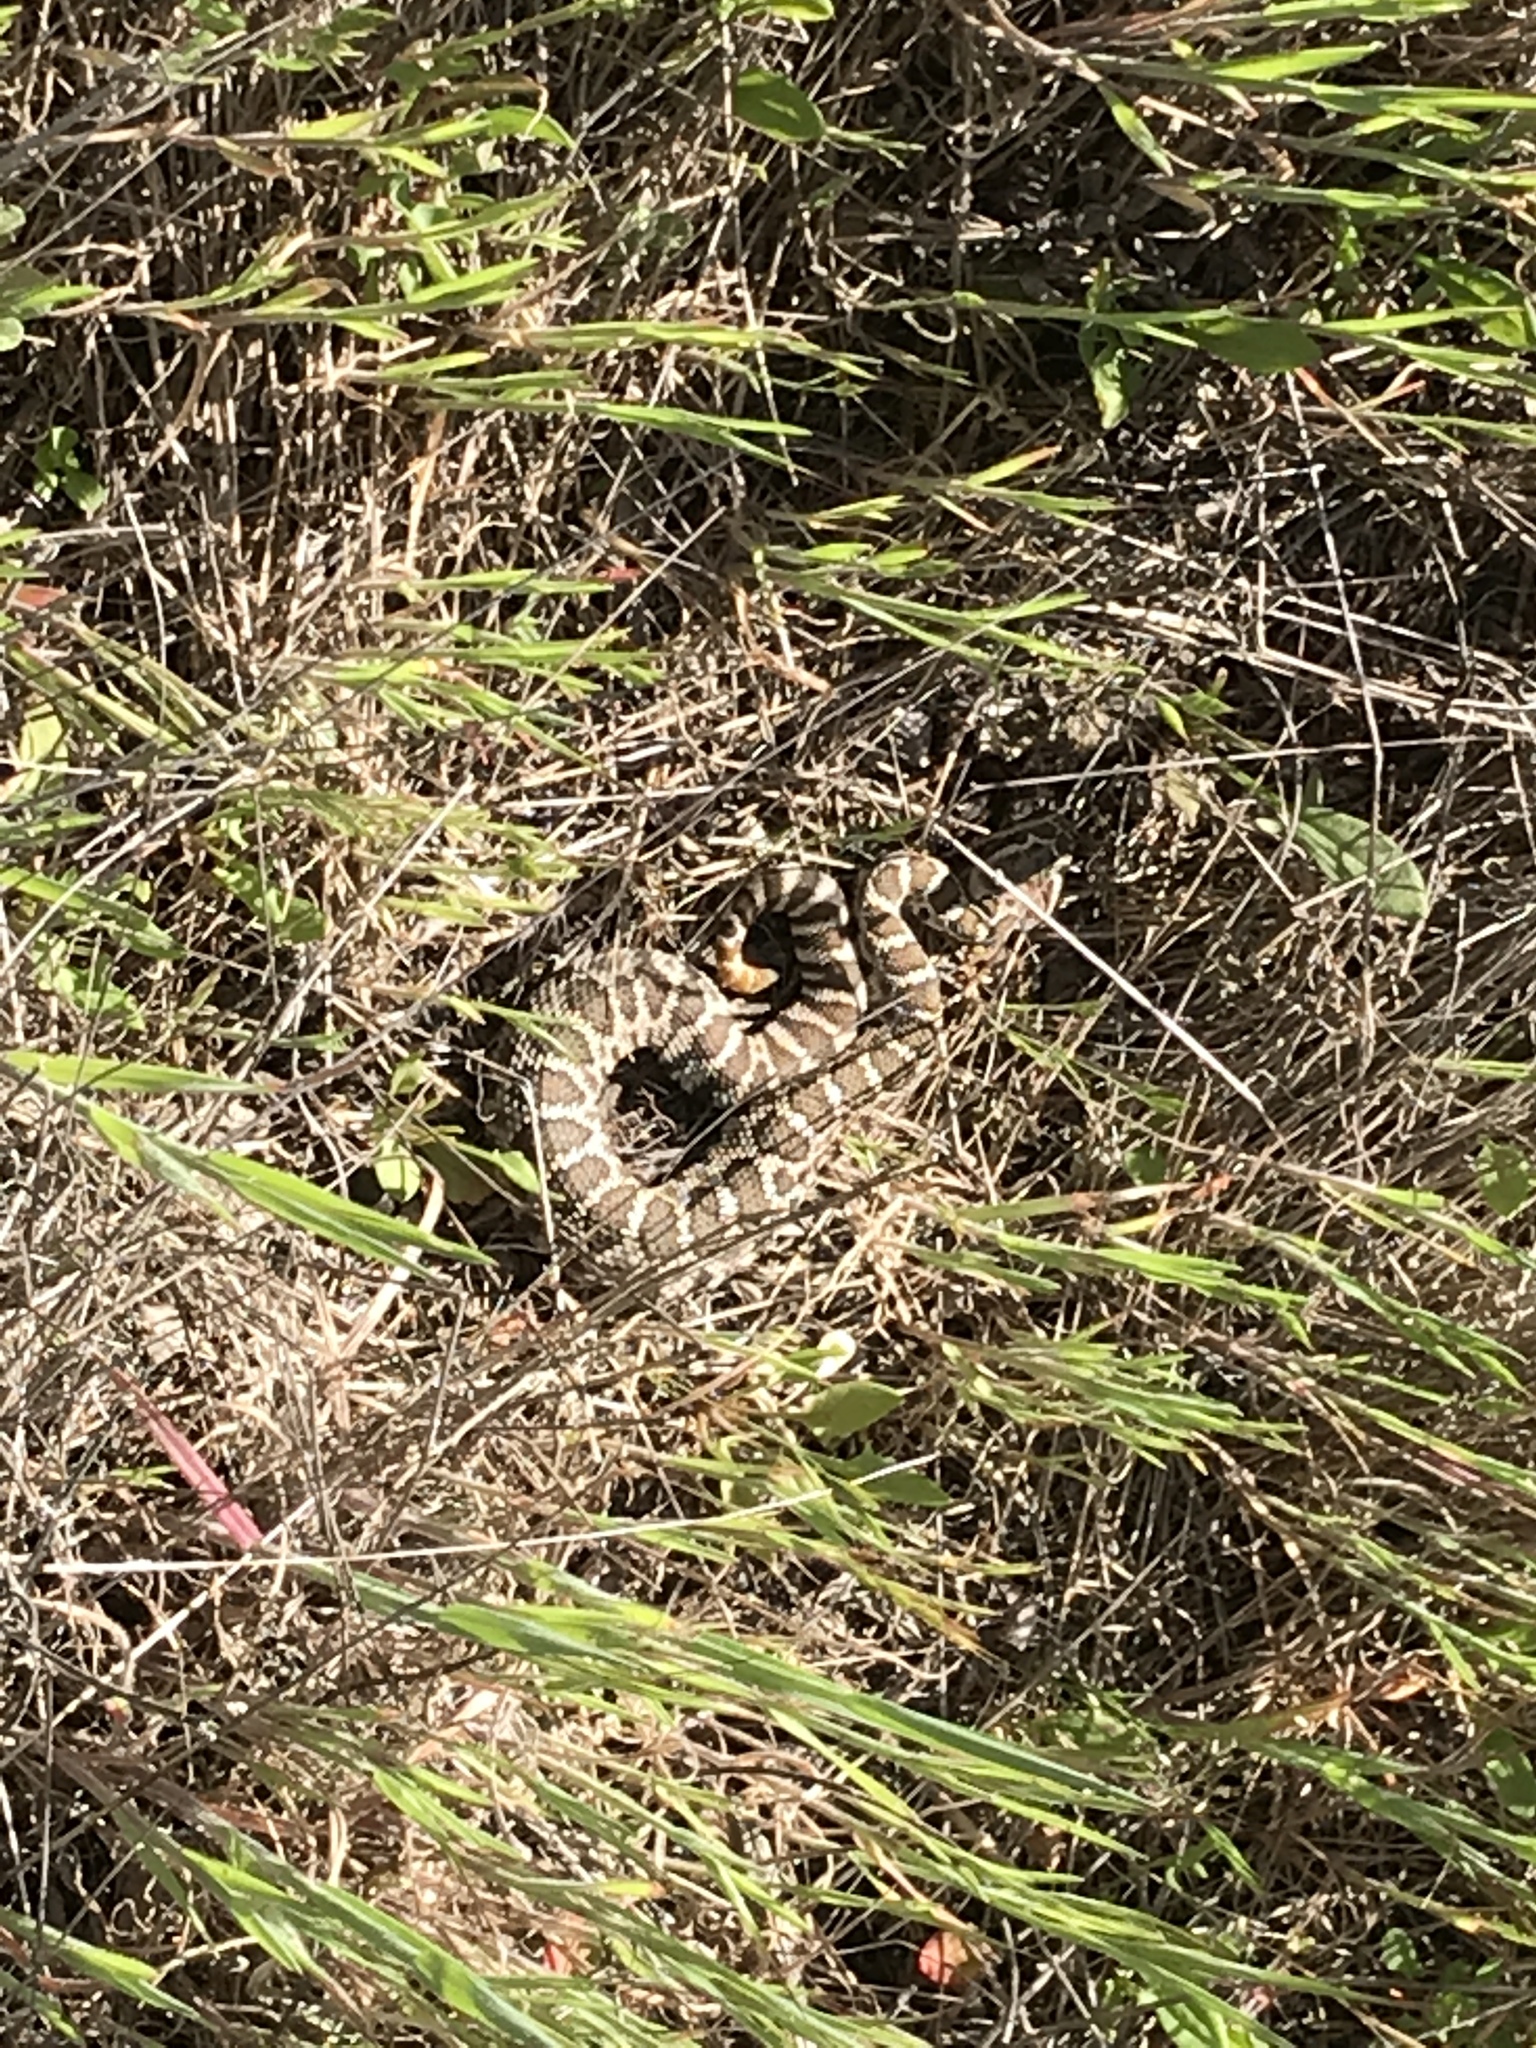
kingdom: Animalia
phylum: Chordata
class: Squamata
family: Viperidae
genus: Crotalus
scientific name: Crotalus oreganus
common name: Abyssus
